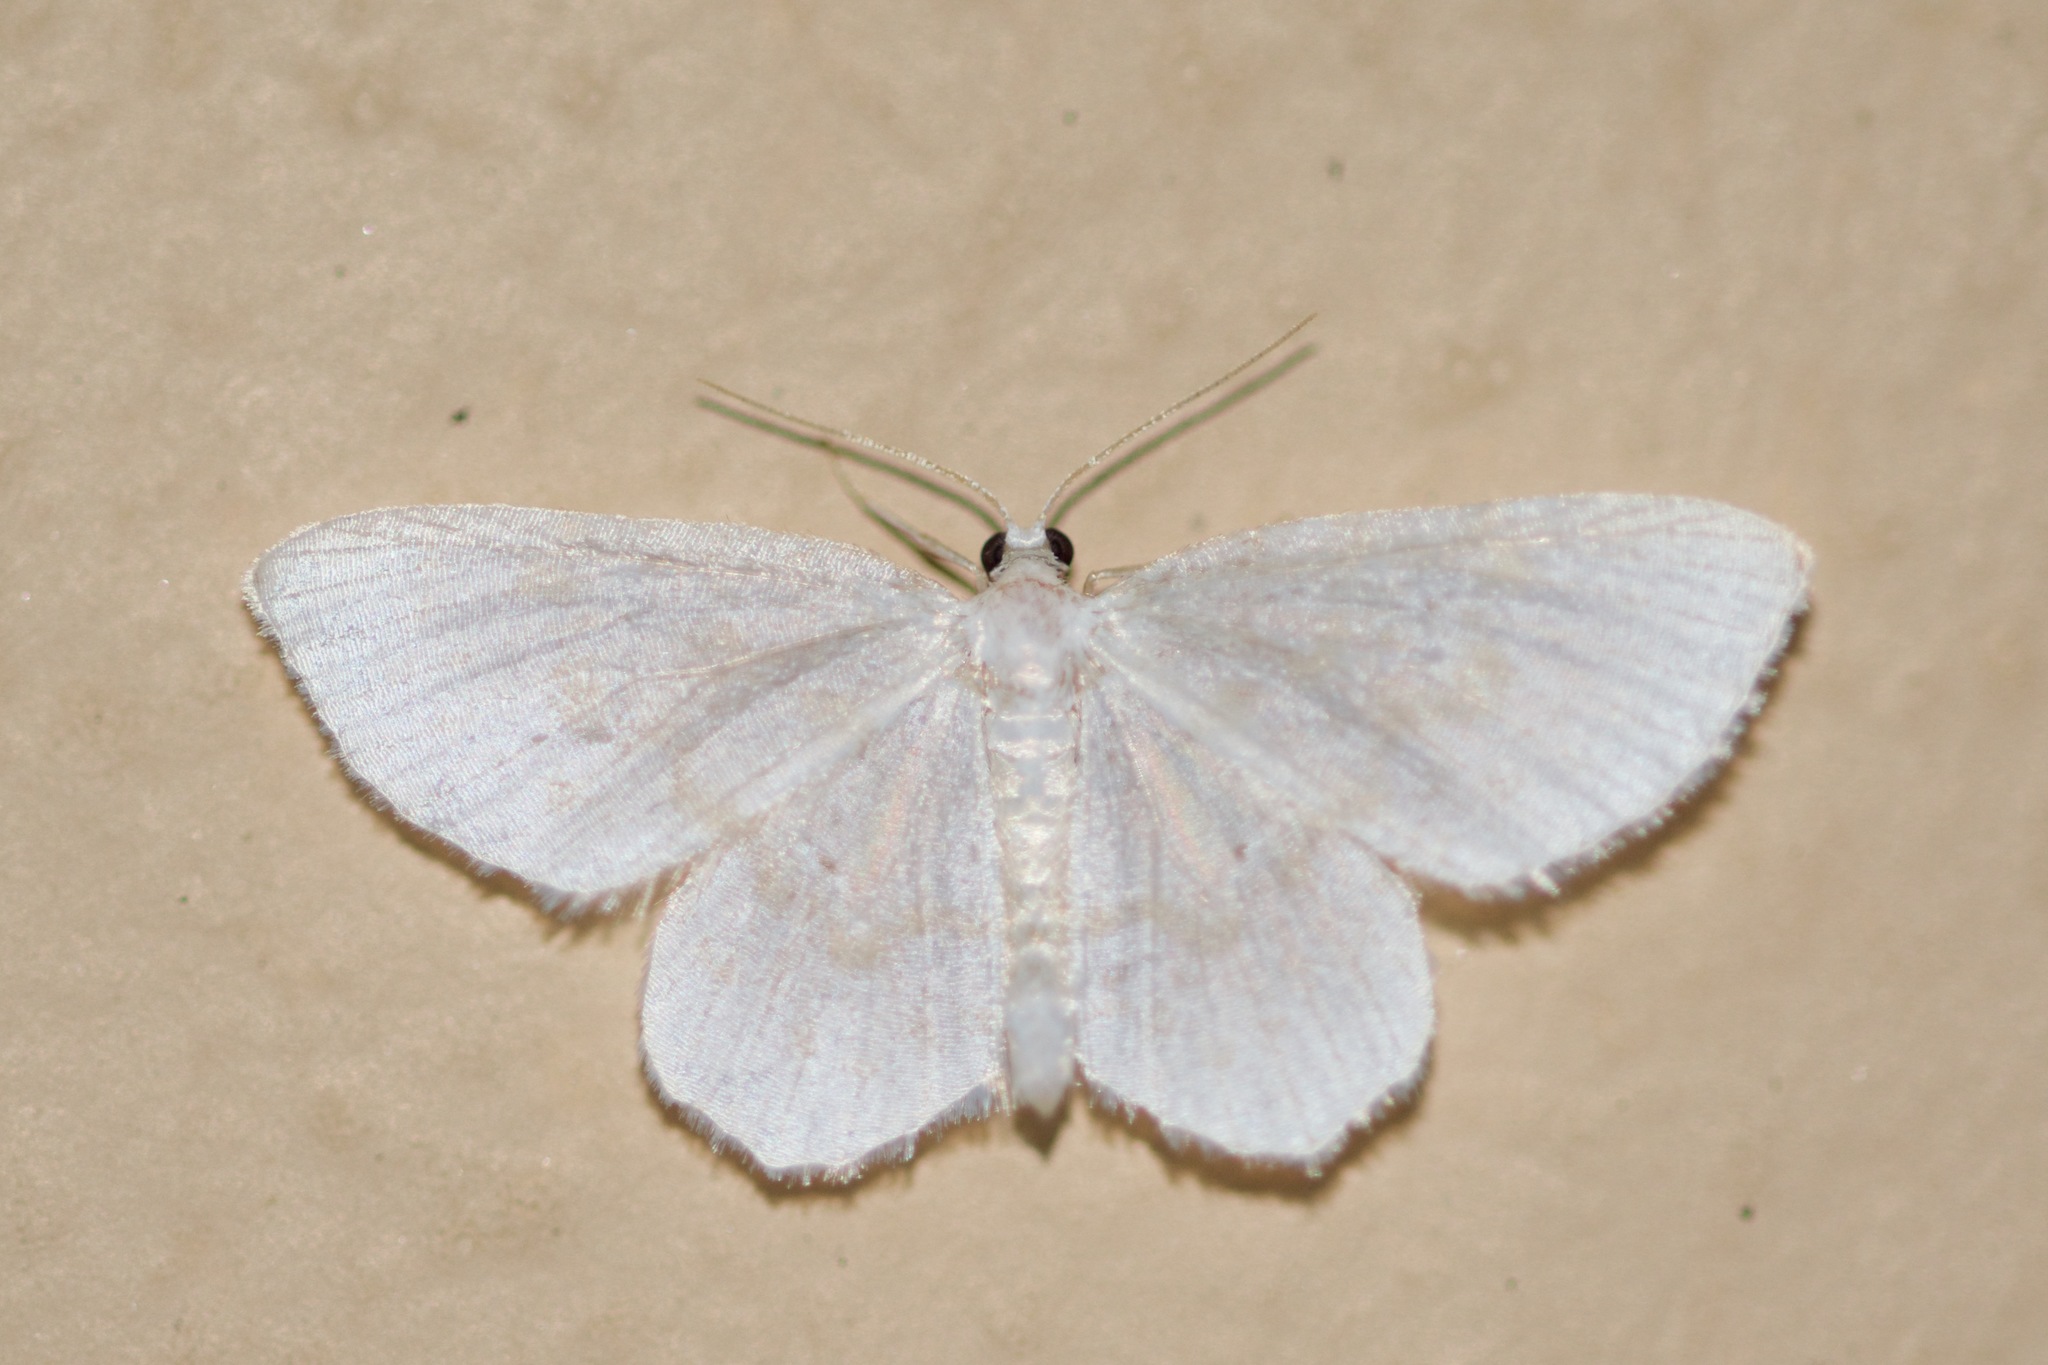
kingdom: Animalia
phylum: Arthropoda
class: Insecta
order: Lepidoptera
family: Geometridae
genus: Hydrelia
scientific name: Hydrelia albifera
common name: Fragile white carpet
